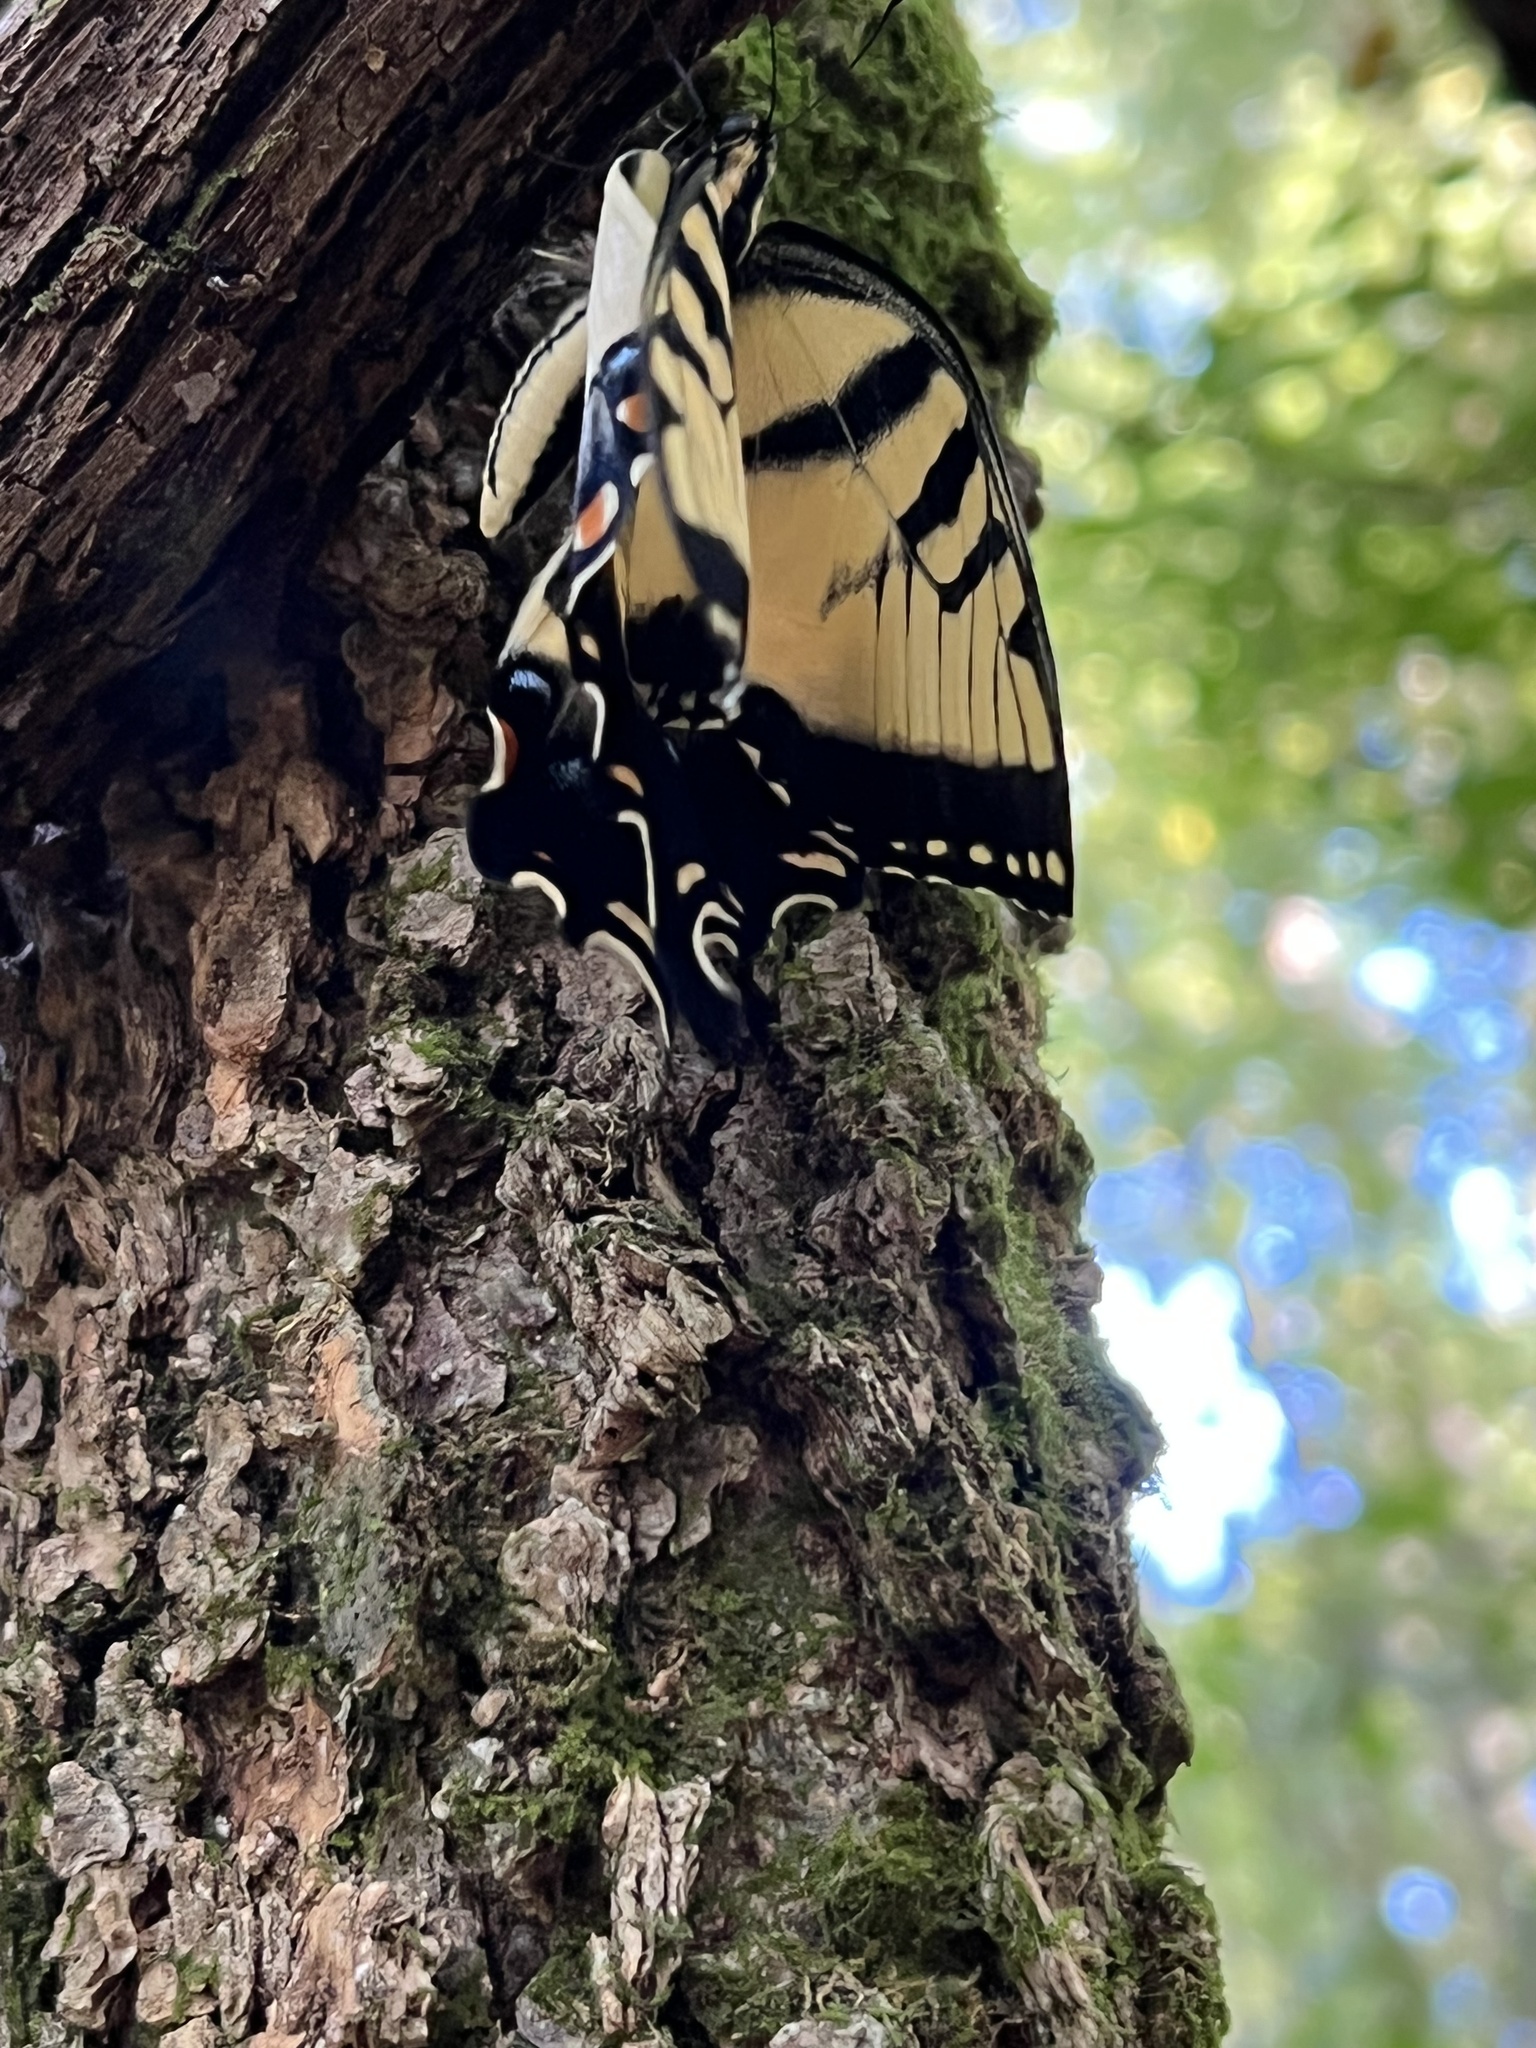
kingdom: Animalia
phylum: Arthropoda
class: Insecta
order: Lepidoptera
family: Papilionidae
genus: Papilio
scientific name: Papilio glaucus
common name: Tiger swallowtail
